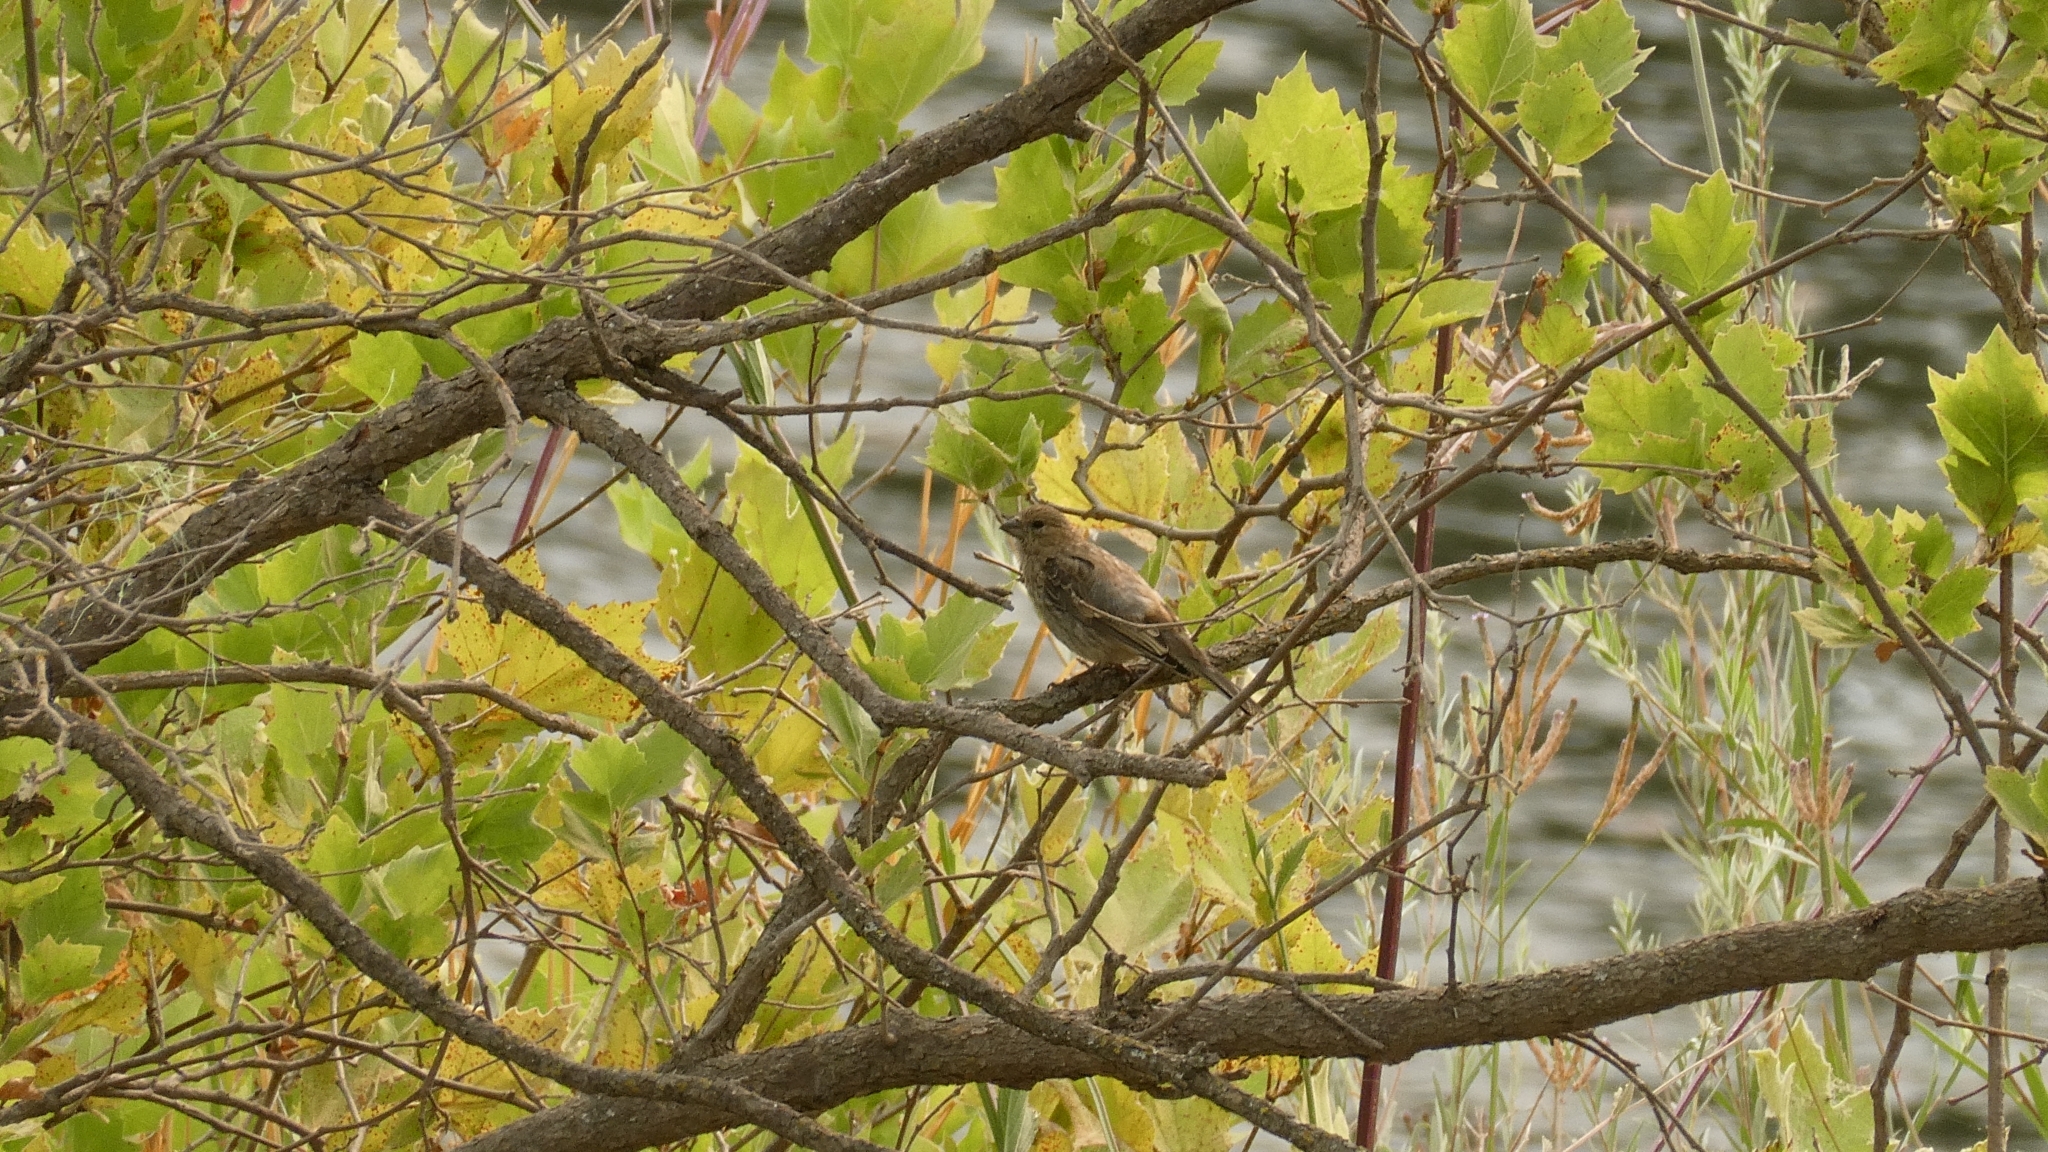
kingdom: Animalia
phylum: Chordata
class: Aves
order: Passeriformes
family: Fringillidae
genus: Haemorhous
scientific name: Haemorhous mexicanus
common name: House finch
